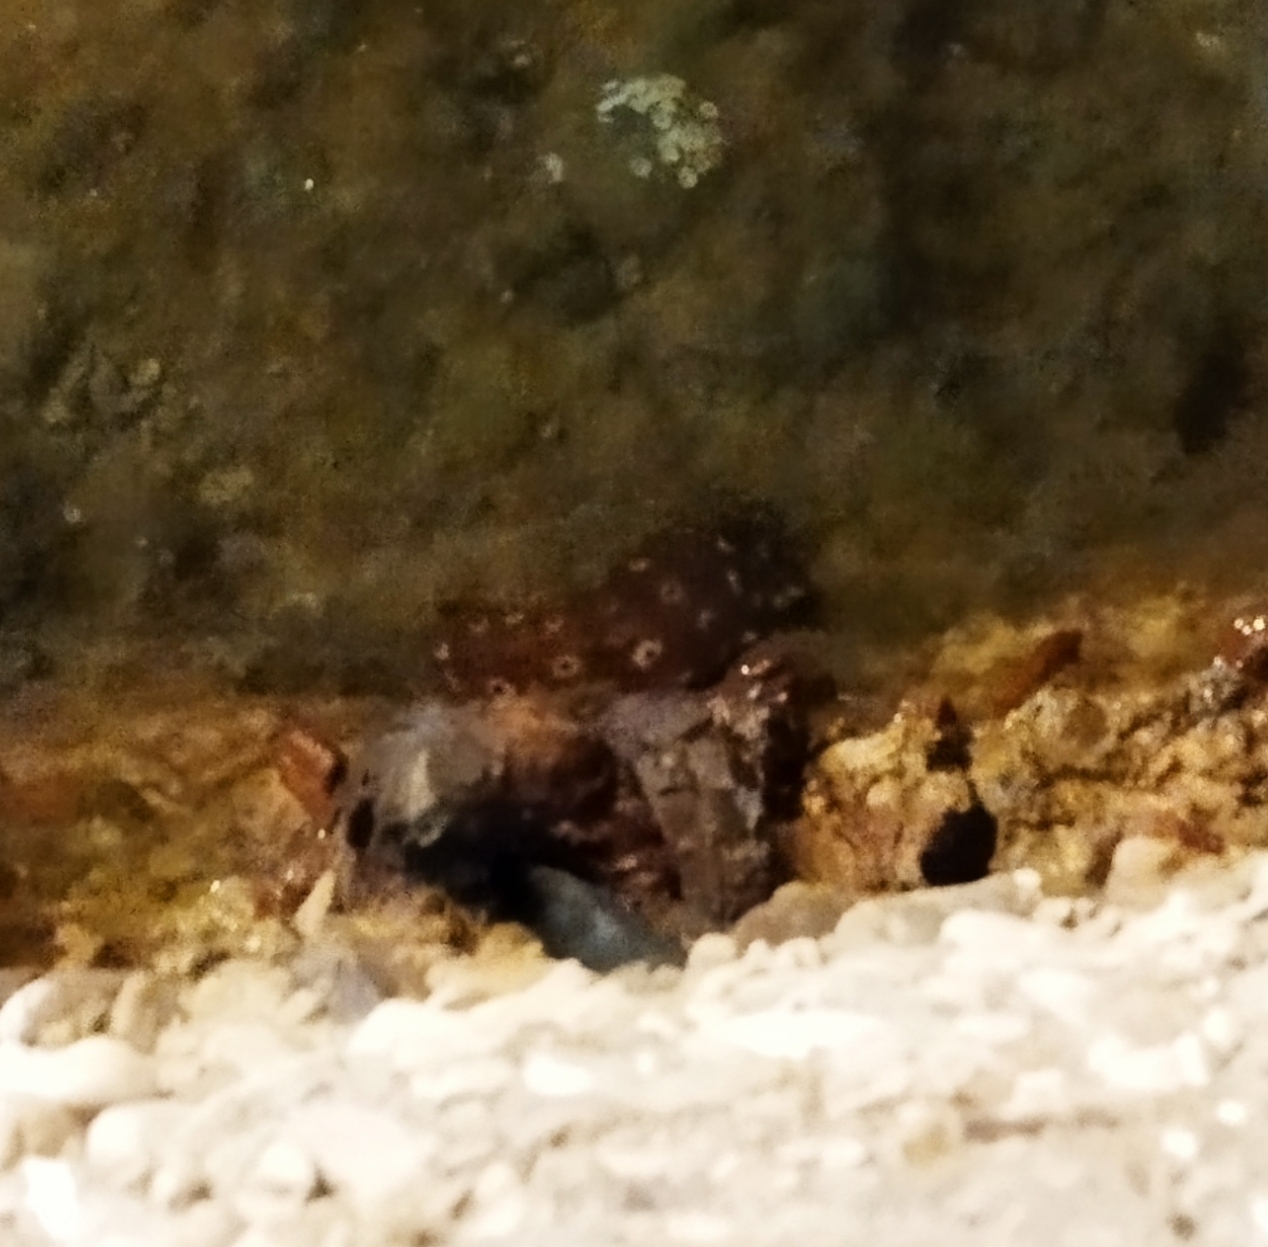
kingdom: Animalia
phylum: Echinodermata
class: Holothuroidea
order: Holothuriida
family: Holothuriidae
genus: Holothuria
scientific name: Holothuria sanctori
